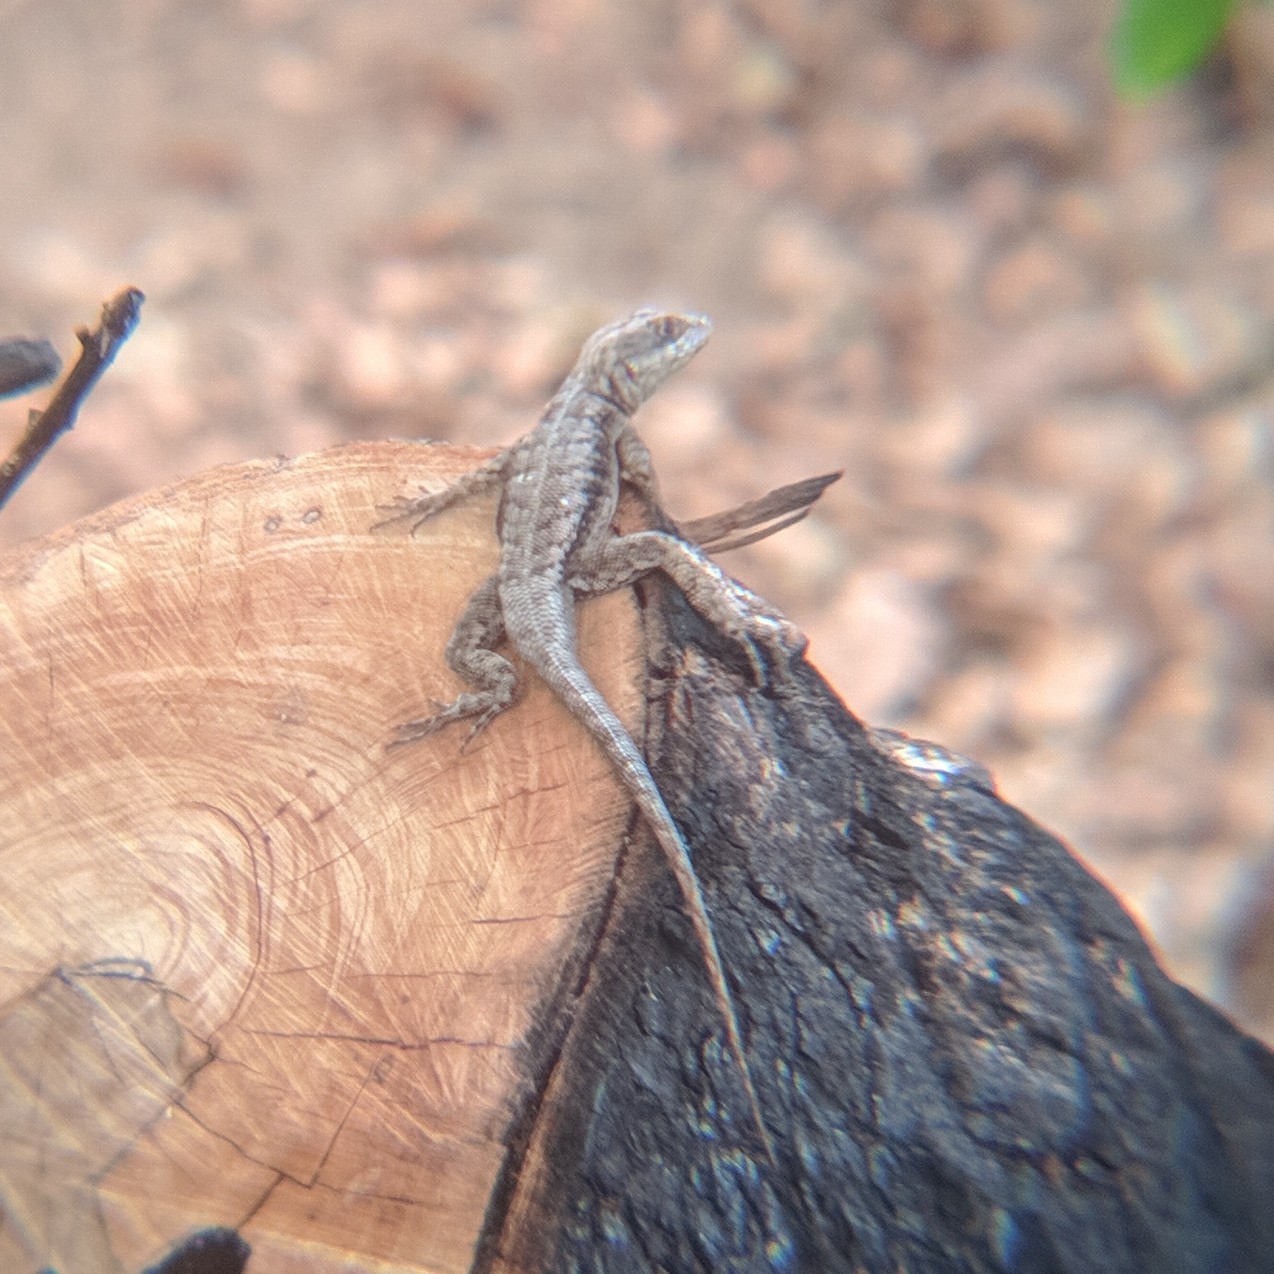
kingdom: Animalia
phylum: Chordata
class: Squamata
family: Tropiduridae
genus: Tropidurus
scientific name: Tropidurus hispidus
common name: Peters' lava lizard
